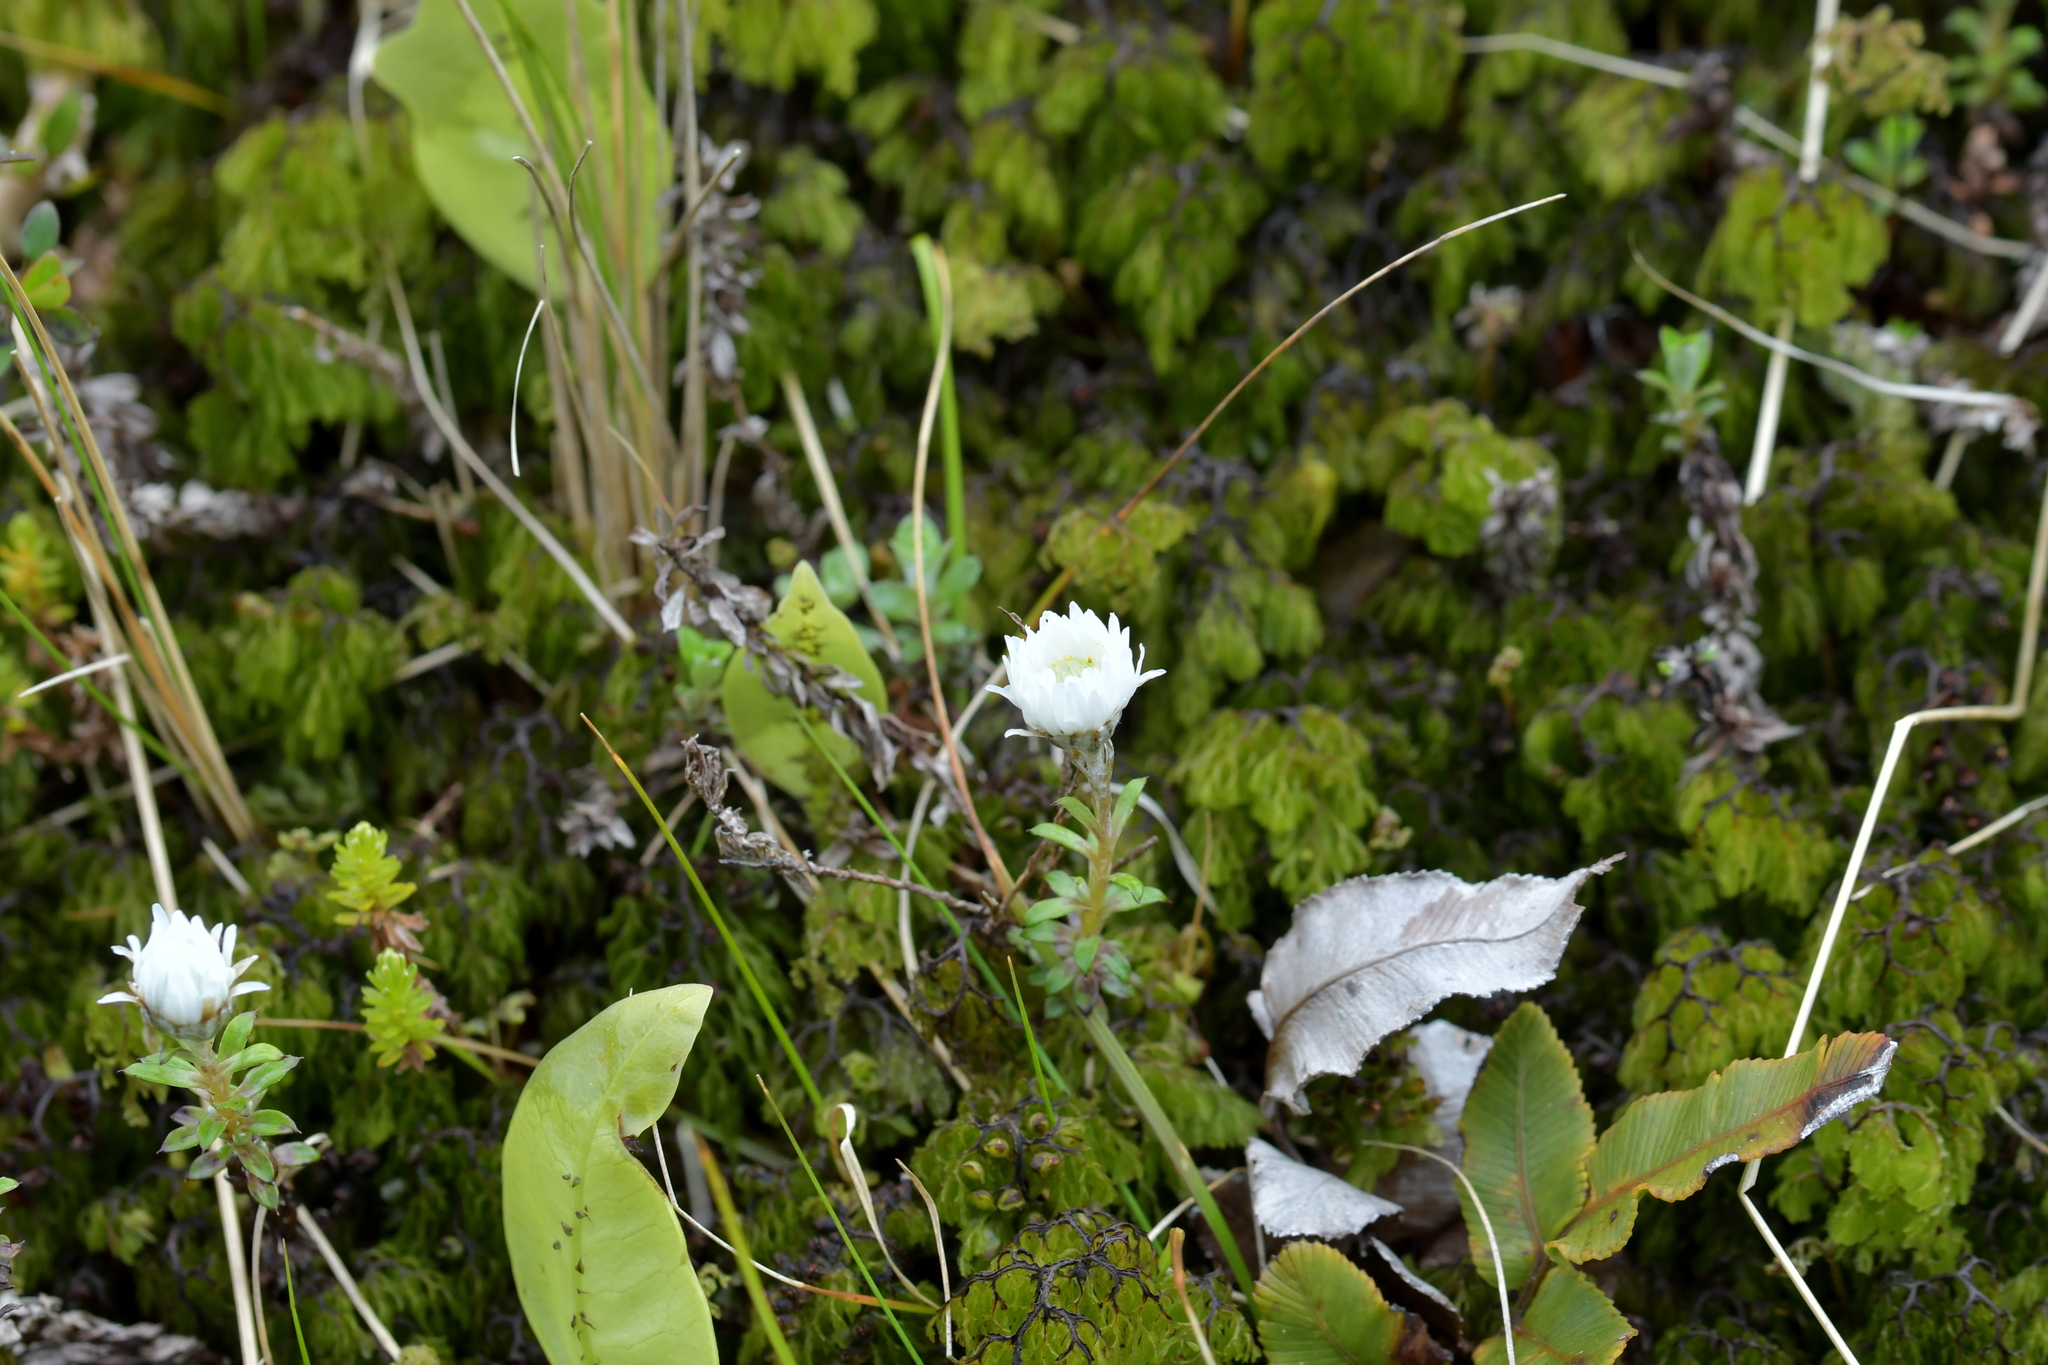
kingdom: Plantae
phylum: Tracheophyta
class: Magnoliopsida
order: Asterales
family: Asteraceae
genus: Anaphalioides
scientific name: Anaphalioides bellidioides
